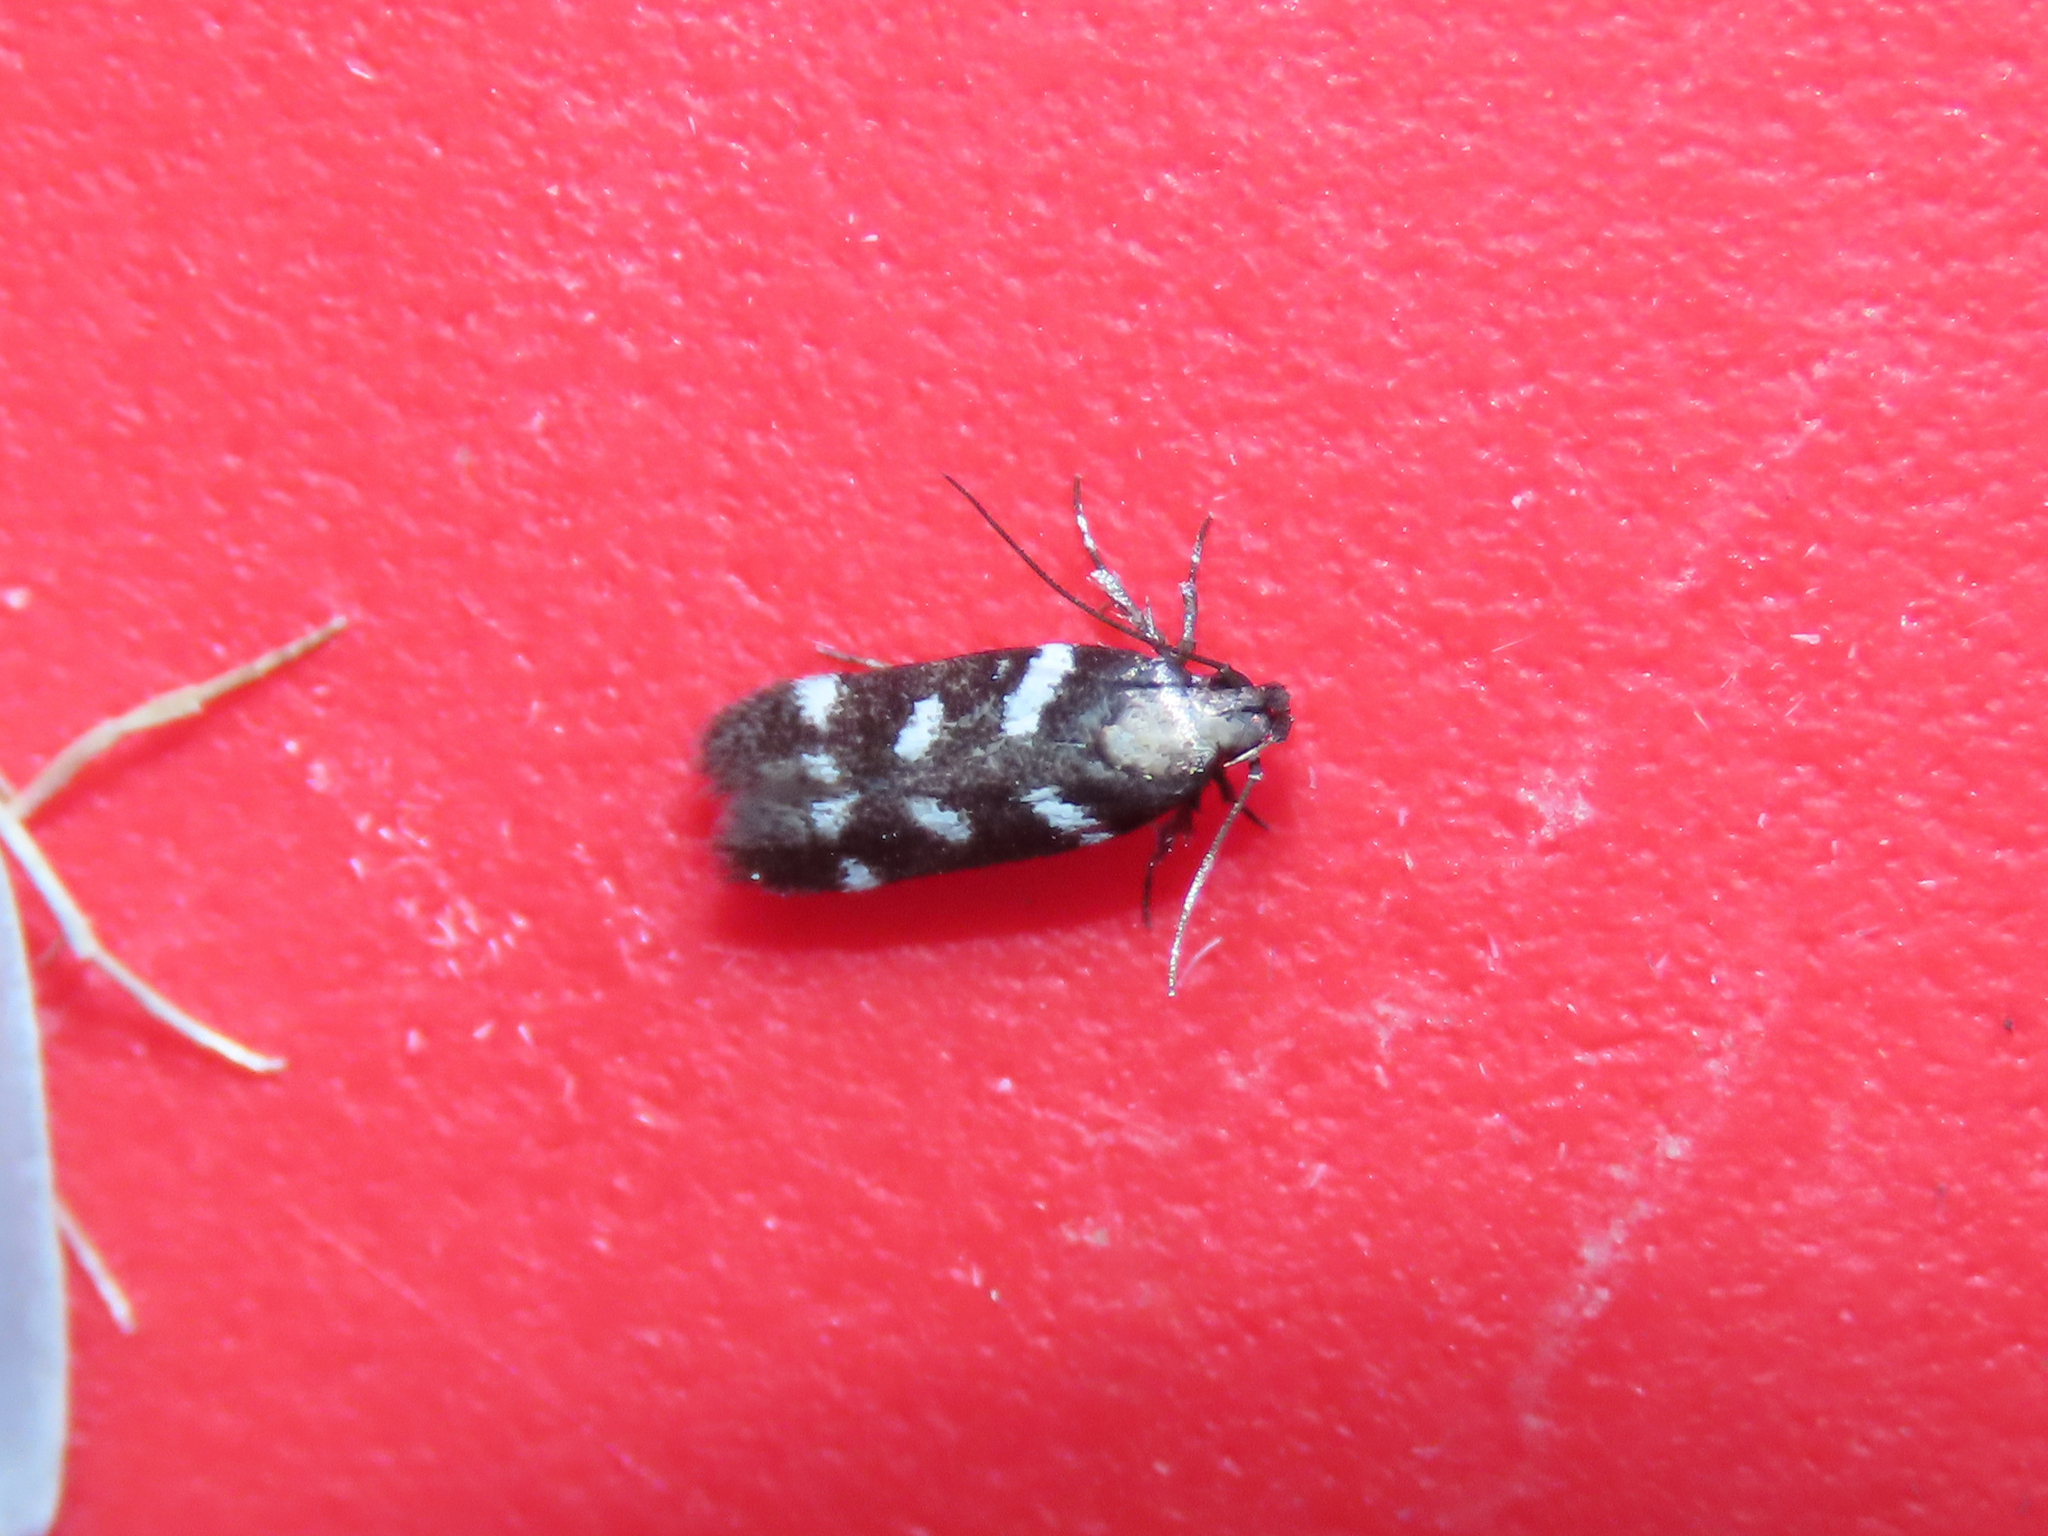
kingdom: Animalia
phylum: Arthropoda
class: Insecta
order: Lepidoptera
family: Gelechiidae
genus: Filatima
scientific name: Filatima arizonella
